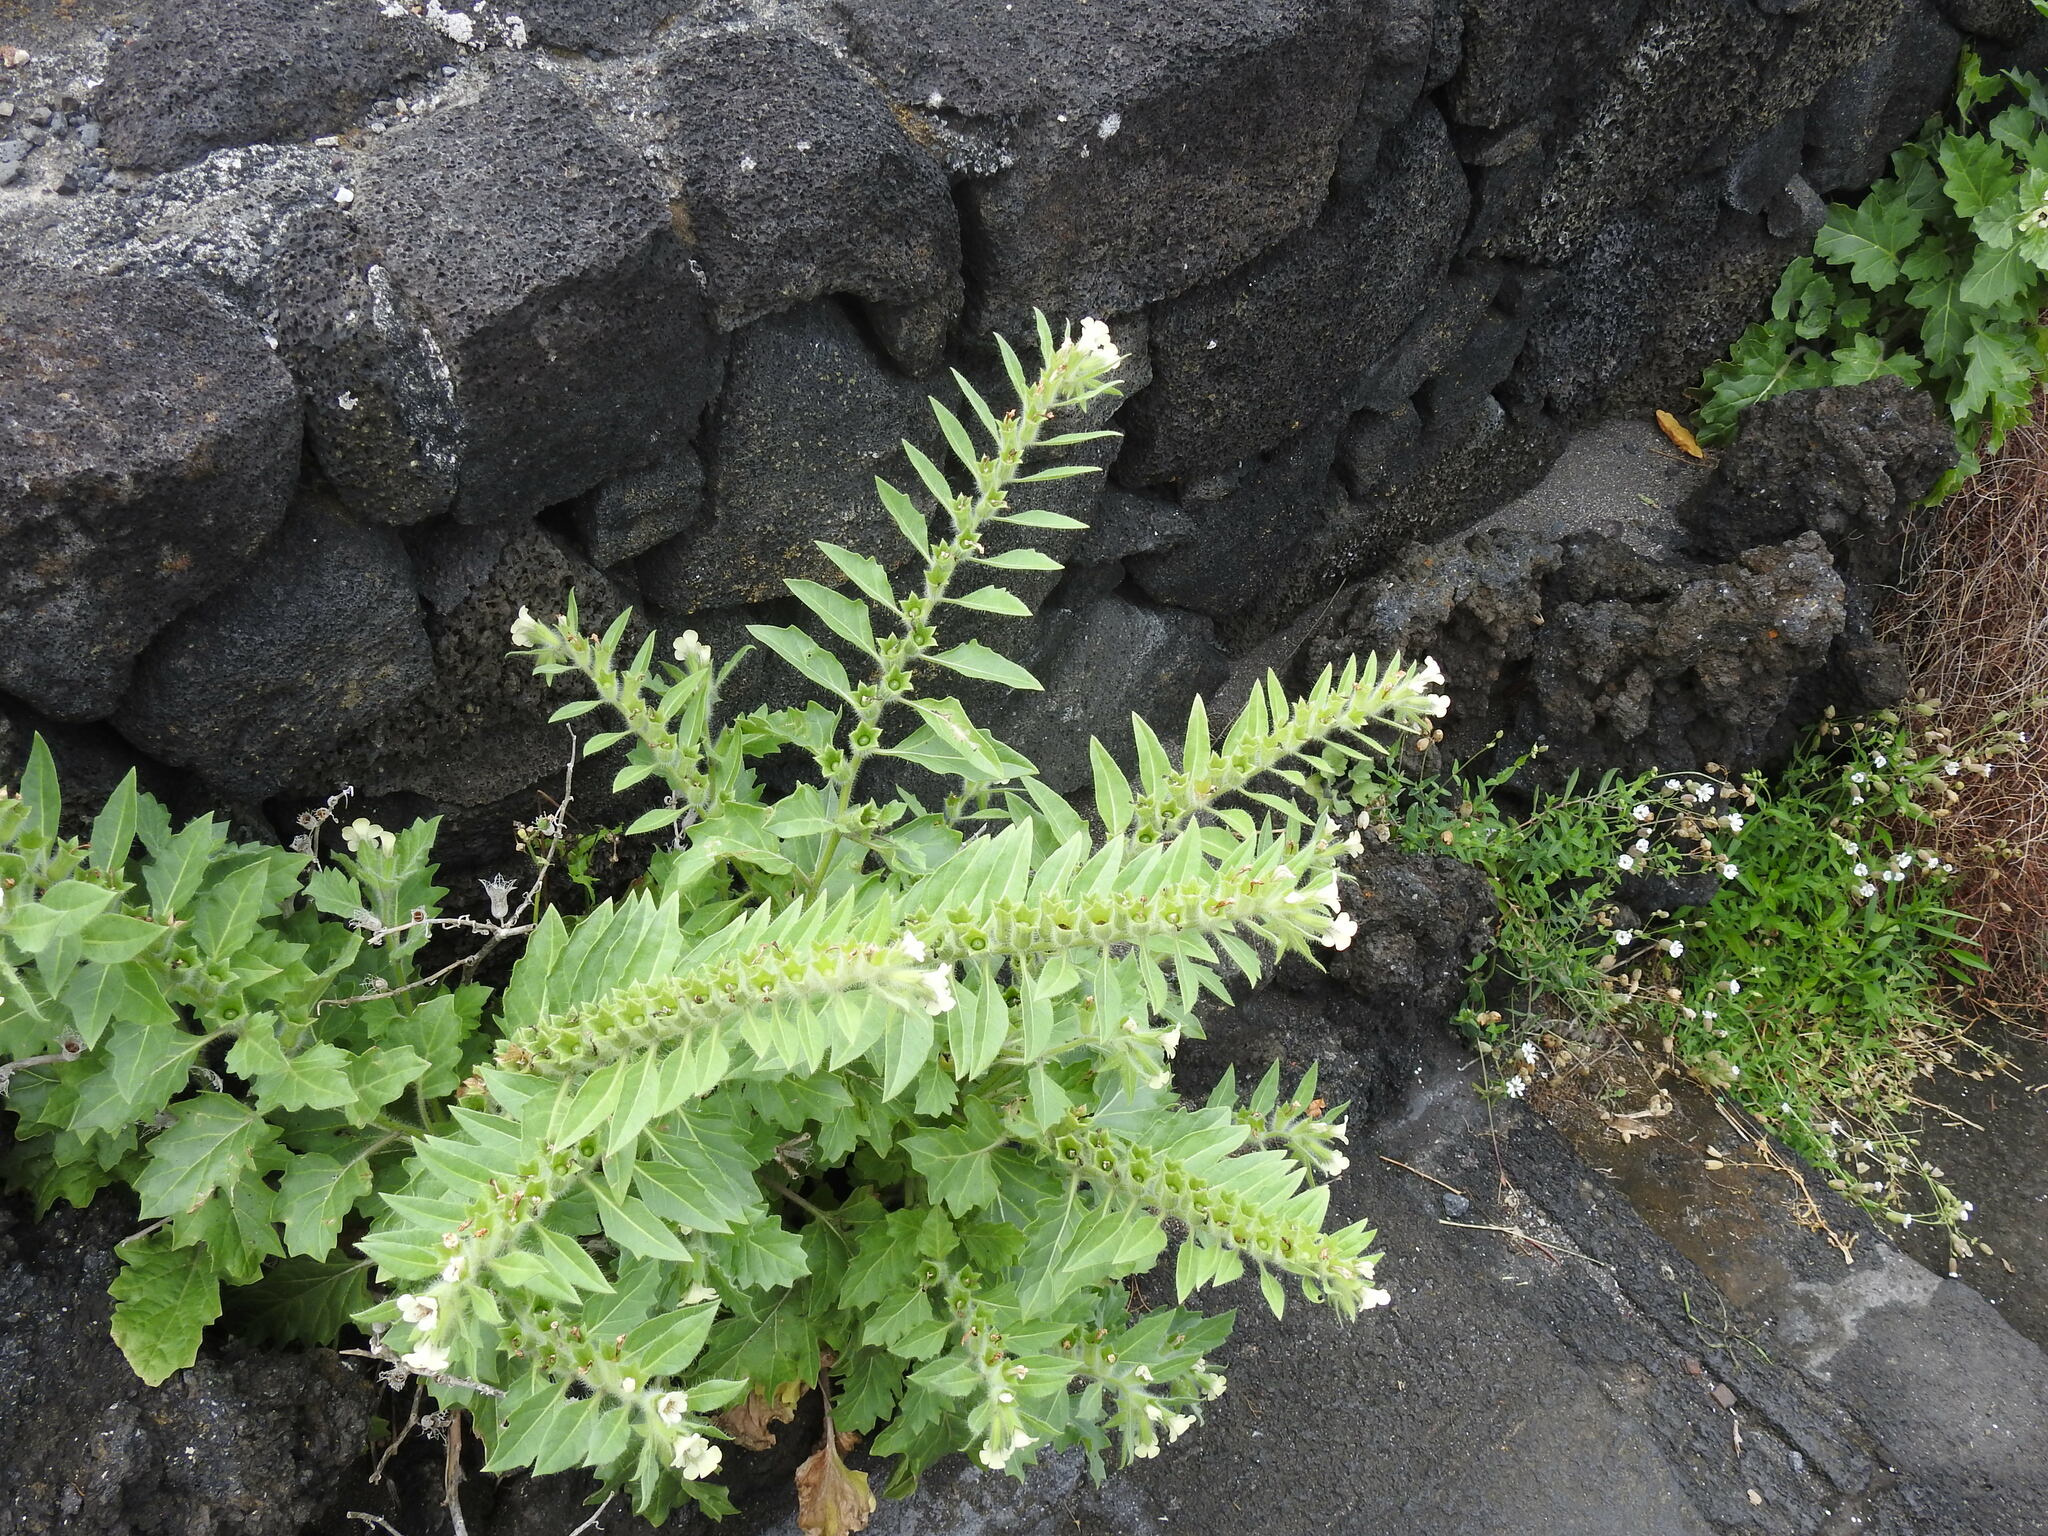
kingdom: Plantae
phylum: Tracheophyta
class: Magnoliopsida
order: Solanales
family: Solanaceae
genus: Hyoscyamus
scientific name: Hyoscyamus albus
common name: White henbane
